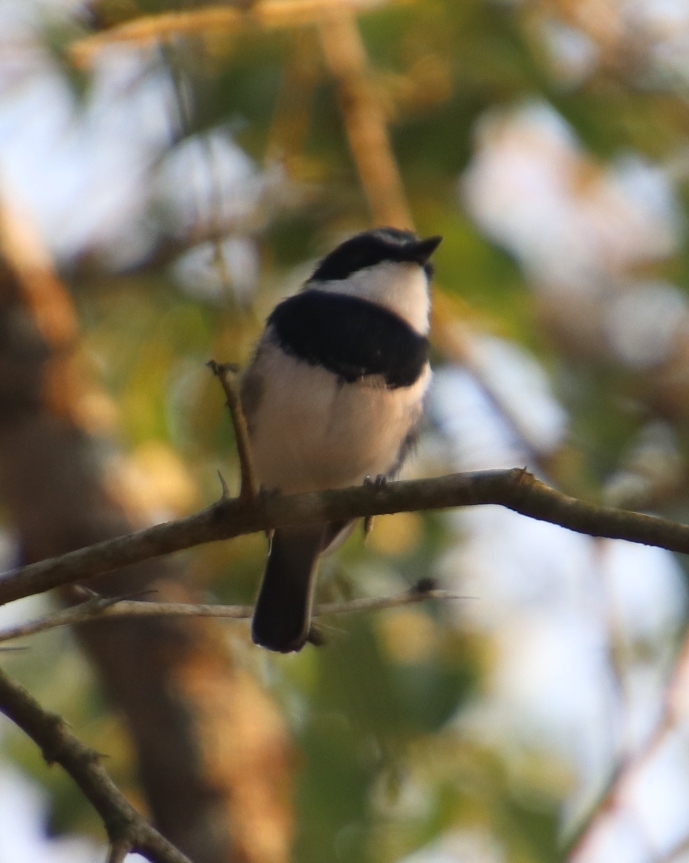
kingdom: Animalia
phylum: Chordata
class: Aves
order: Passeriformes
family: Platysteiridae
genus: Batis
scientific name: Batis molitor
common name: Chinspot batis
